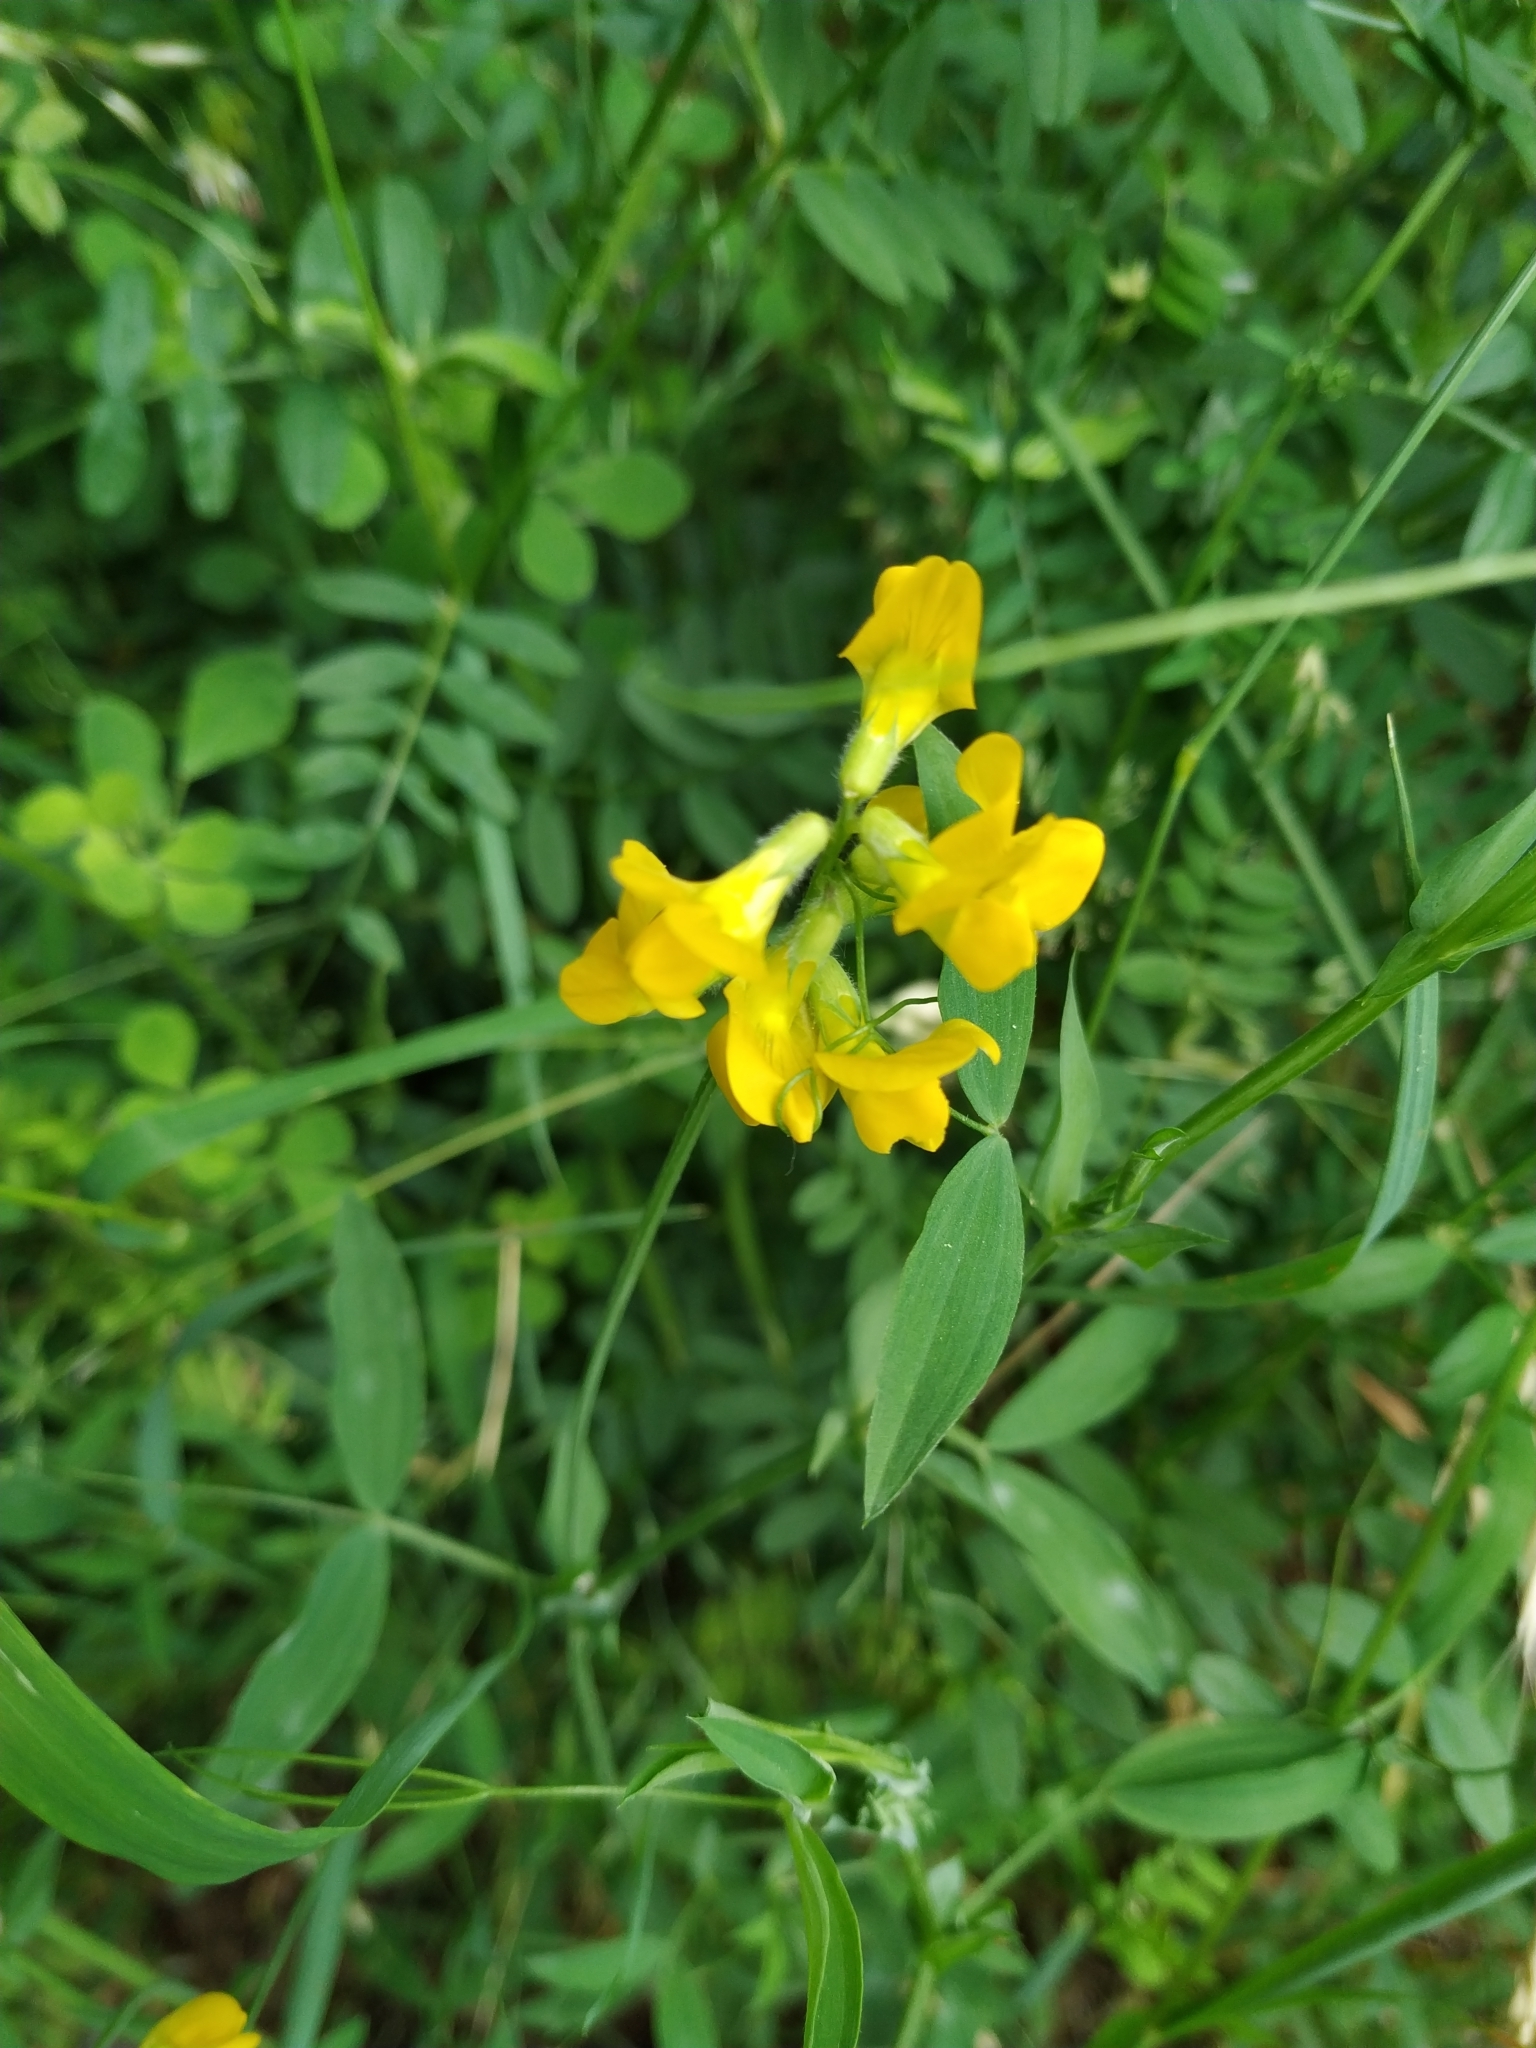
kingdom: Plantae
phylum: Tracheophyta
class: Magnoliopsida
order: Fabales
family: Fabaceae
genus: Lathyrus
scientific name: Lathyrus pratensis
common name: Meadow vetchling
